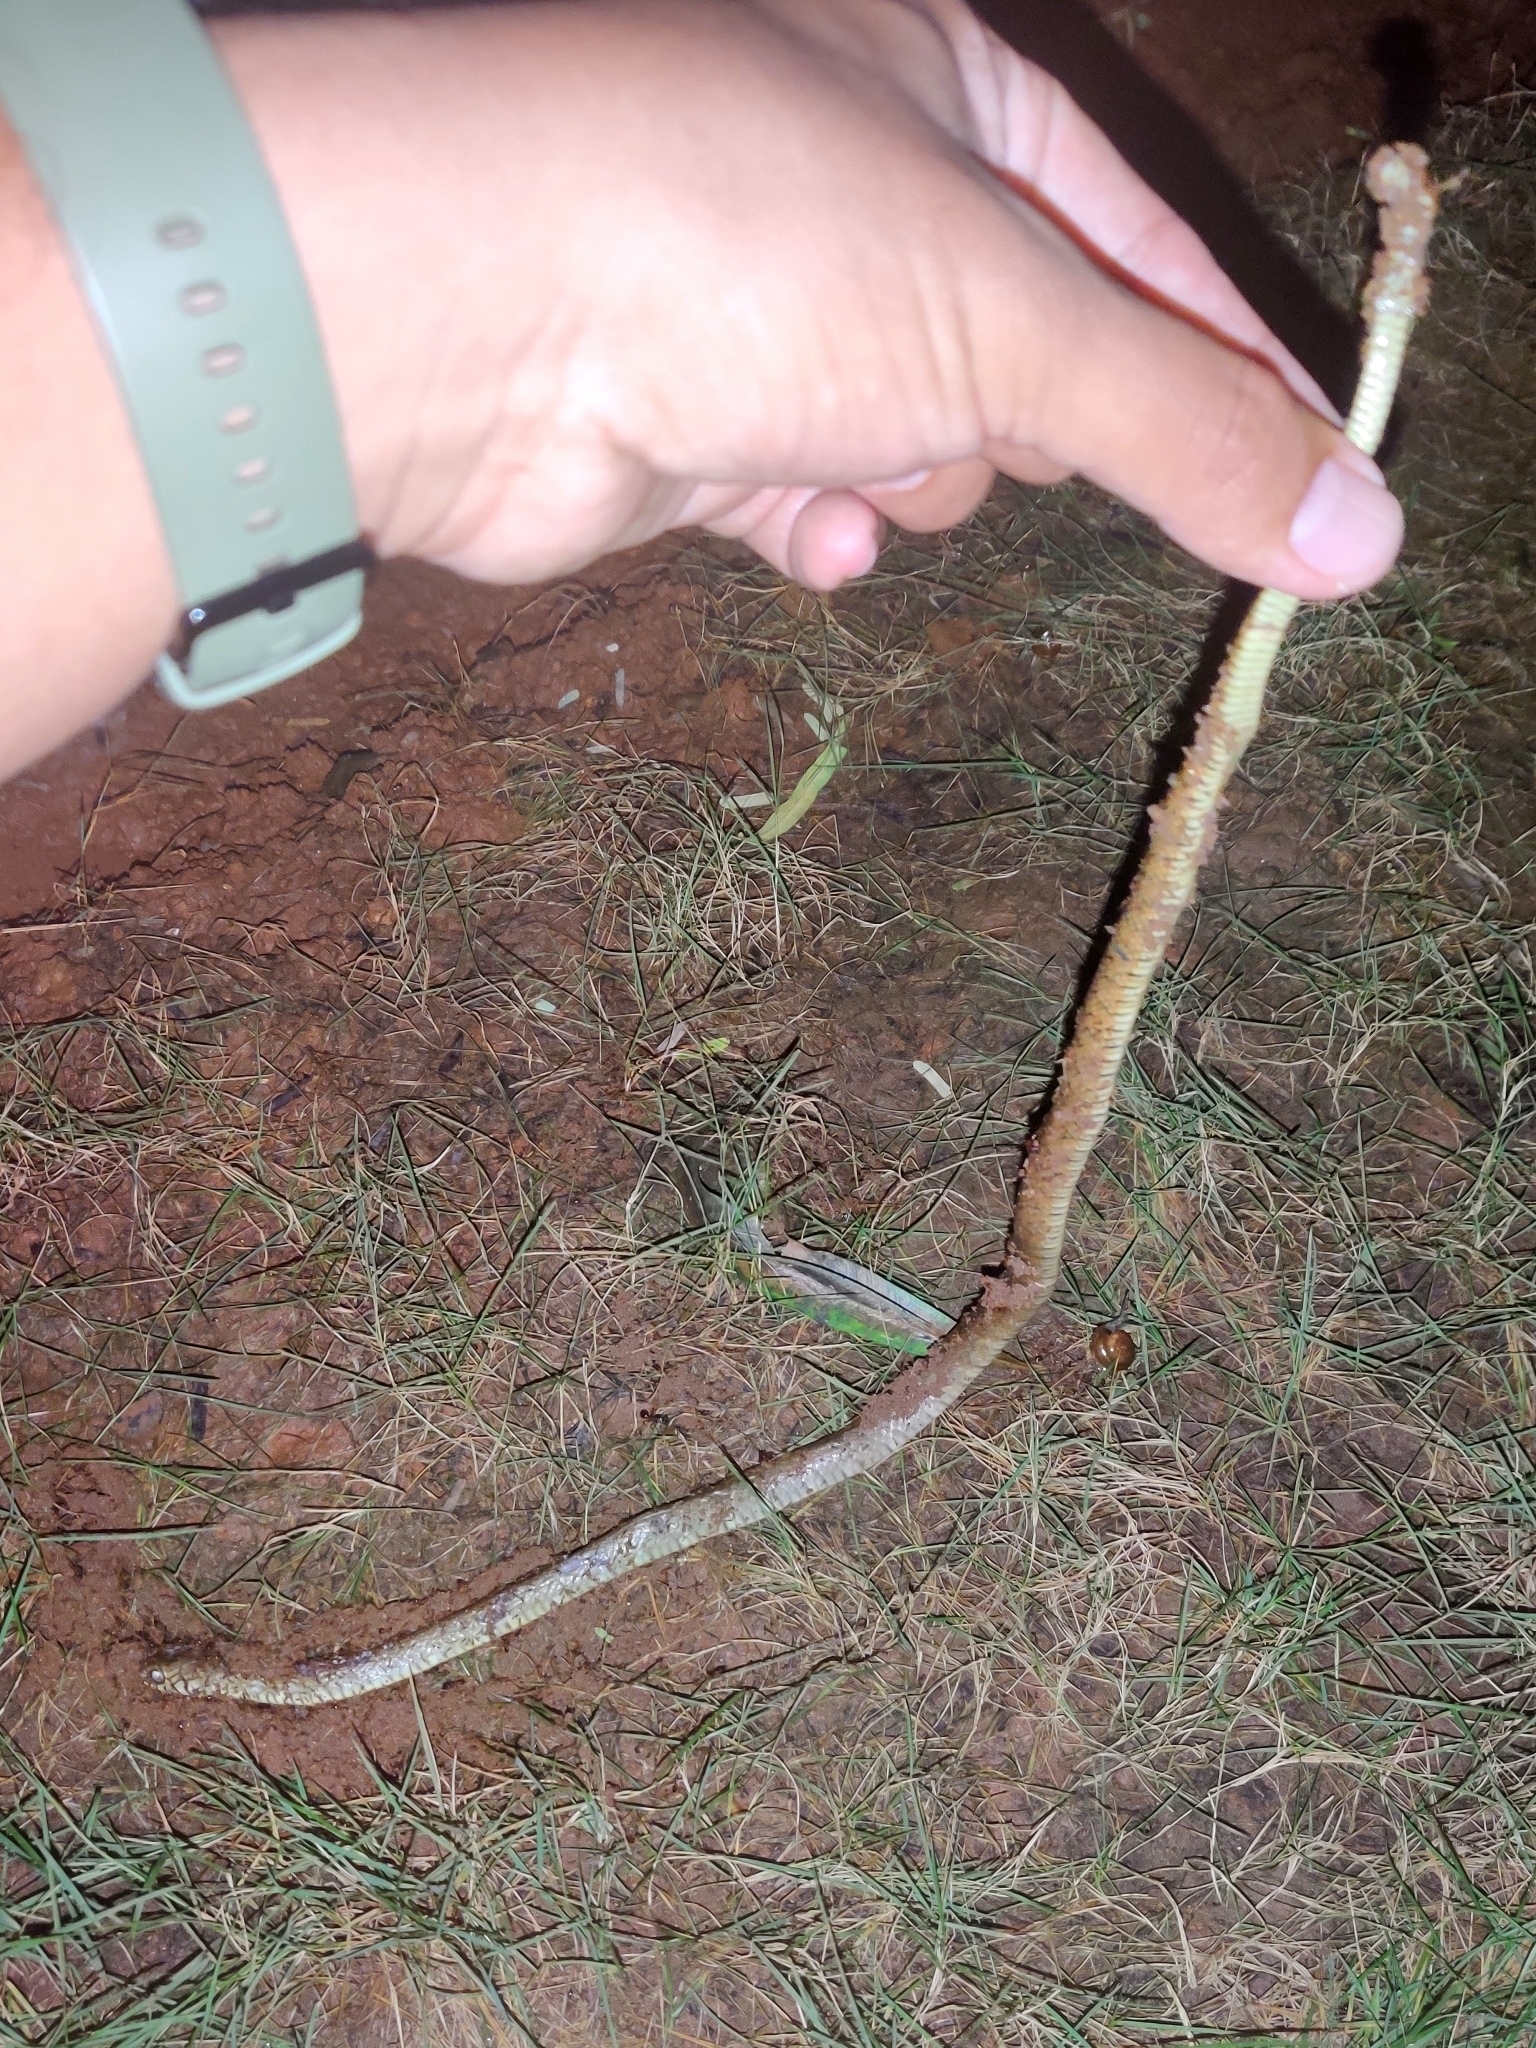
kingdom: Animalia
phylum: Chordata
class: Squamata
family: Colubridae
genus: Ptyas
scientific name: Ptyas mucosa
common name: Oriental ratsnake
